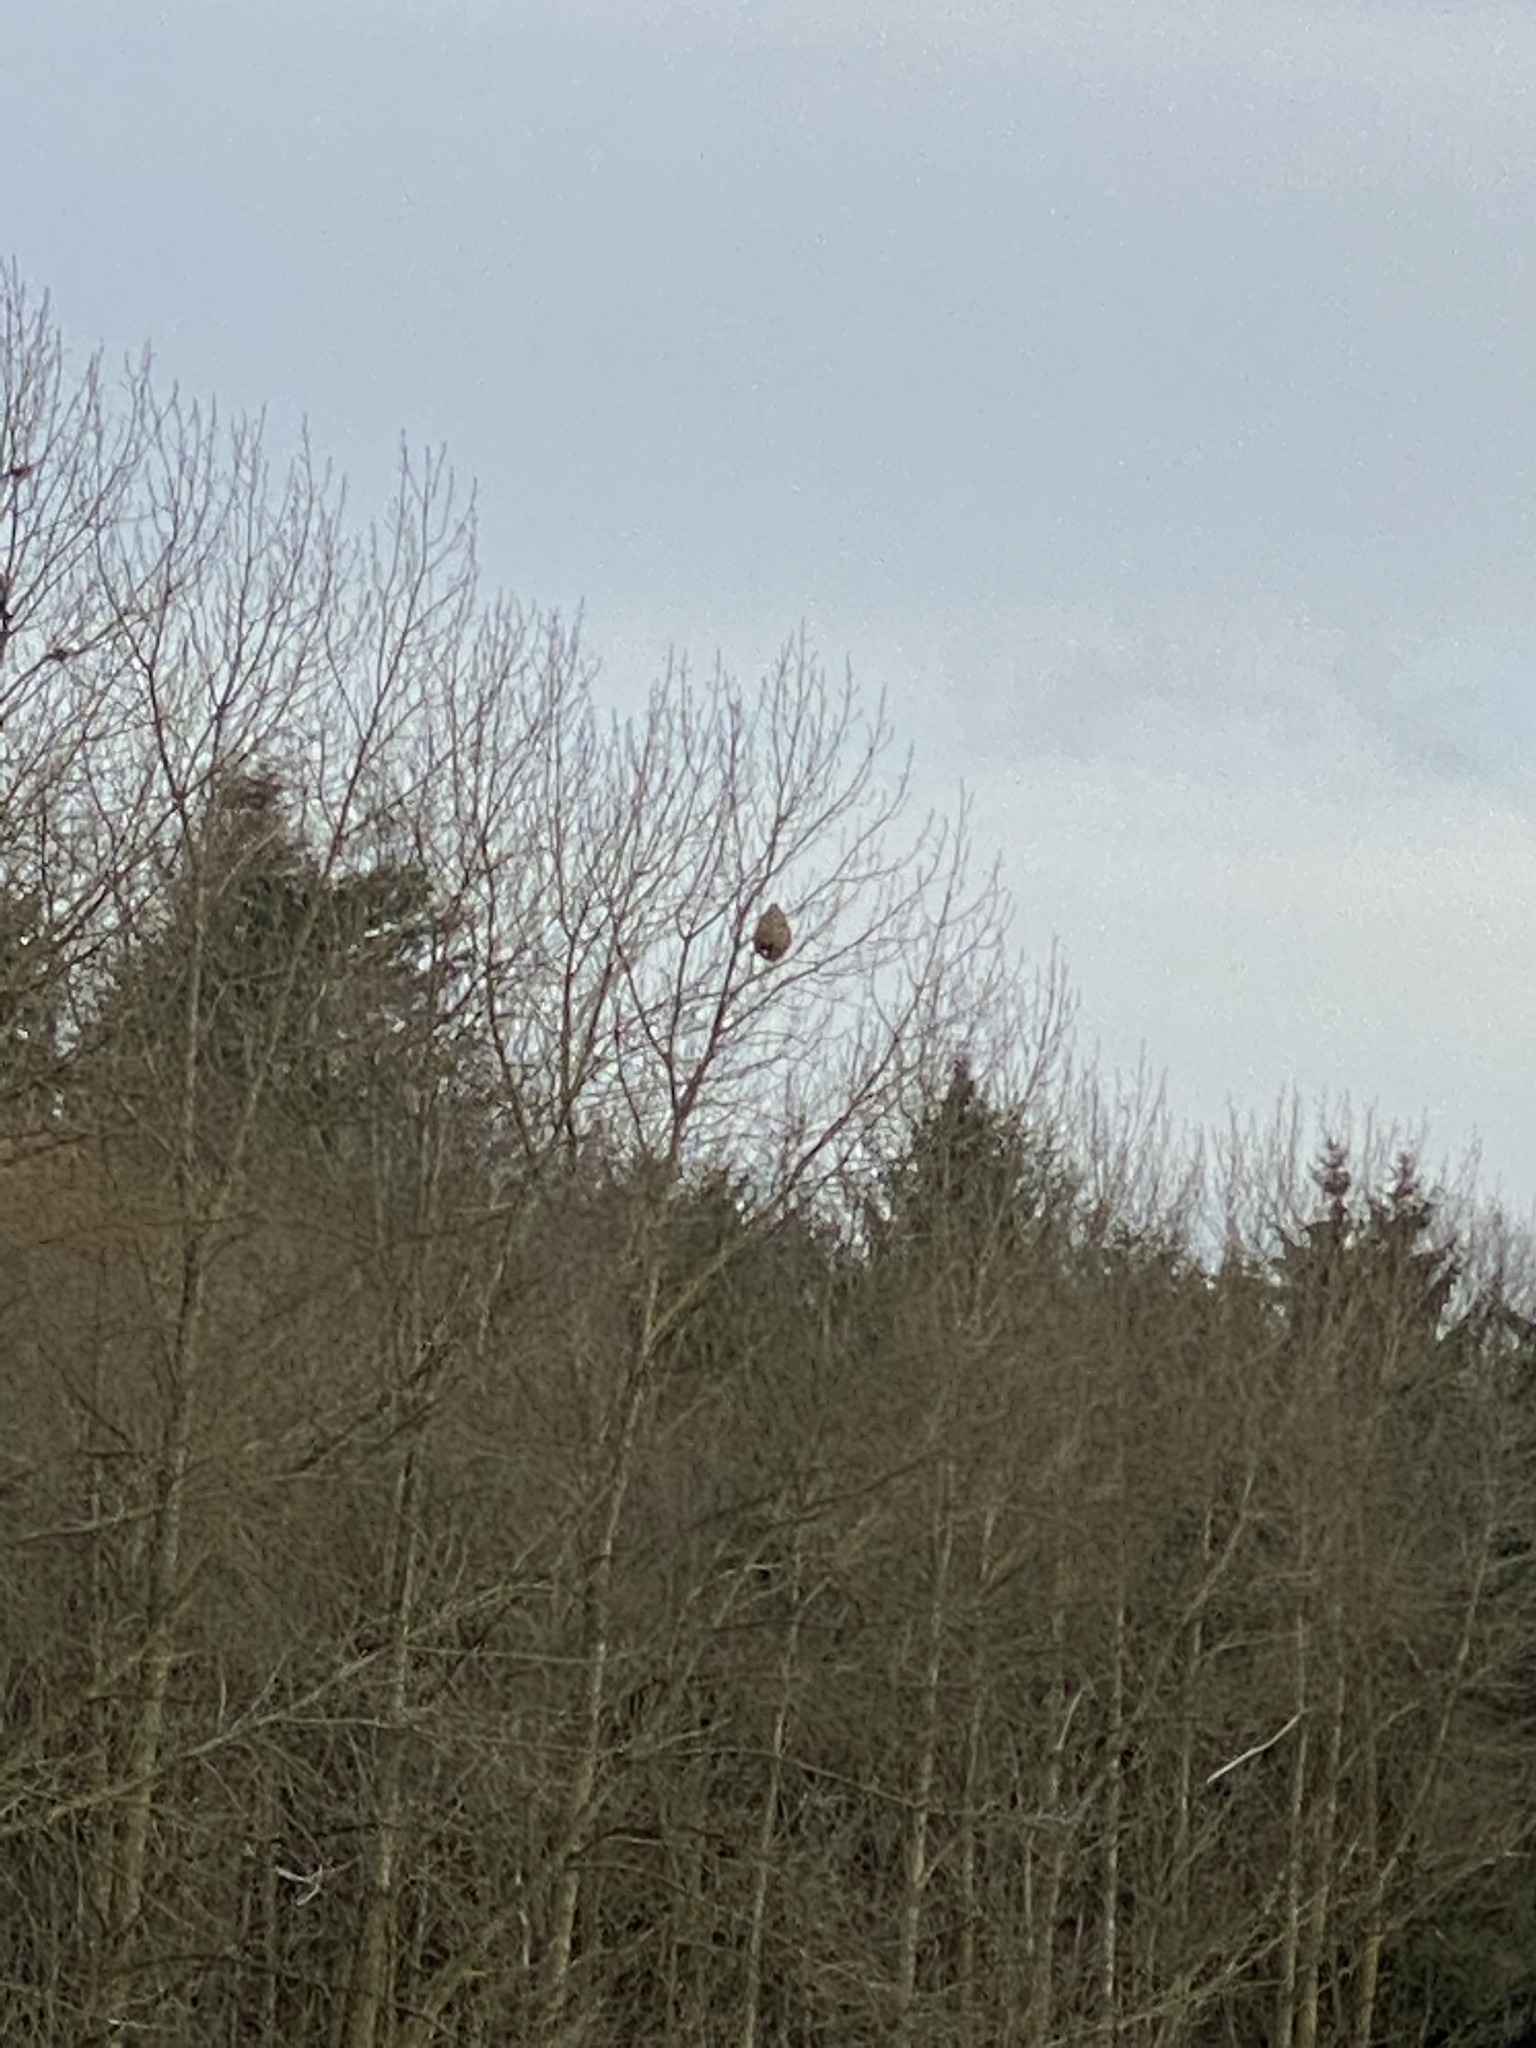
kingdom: Animalia
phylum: Arthropoda
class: Insecta
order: Hymenoptera
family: Vespidae
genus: Vespa
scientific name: Vespa velutina
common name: Asian hornet
